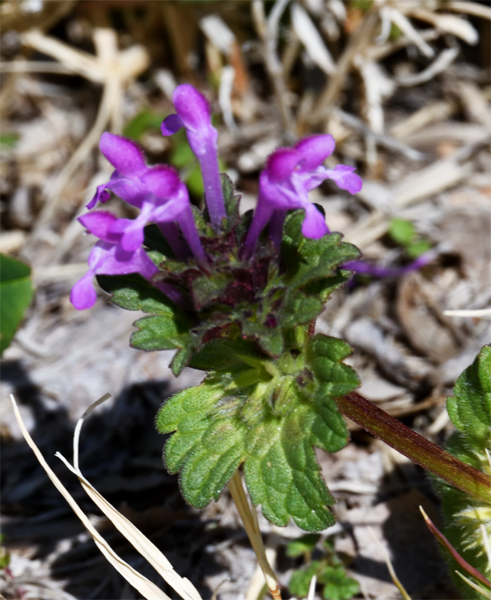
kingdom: Plantae
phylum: Tracheophyta
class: Magnoliopsida
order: Lamiales
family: Lamiaceae
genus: Lamium
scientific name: Lamium amplexicaule
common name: Henbit dead-nettle
